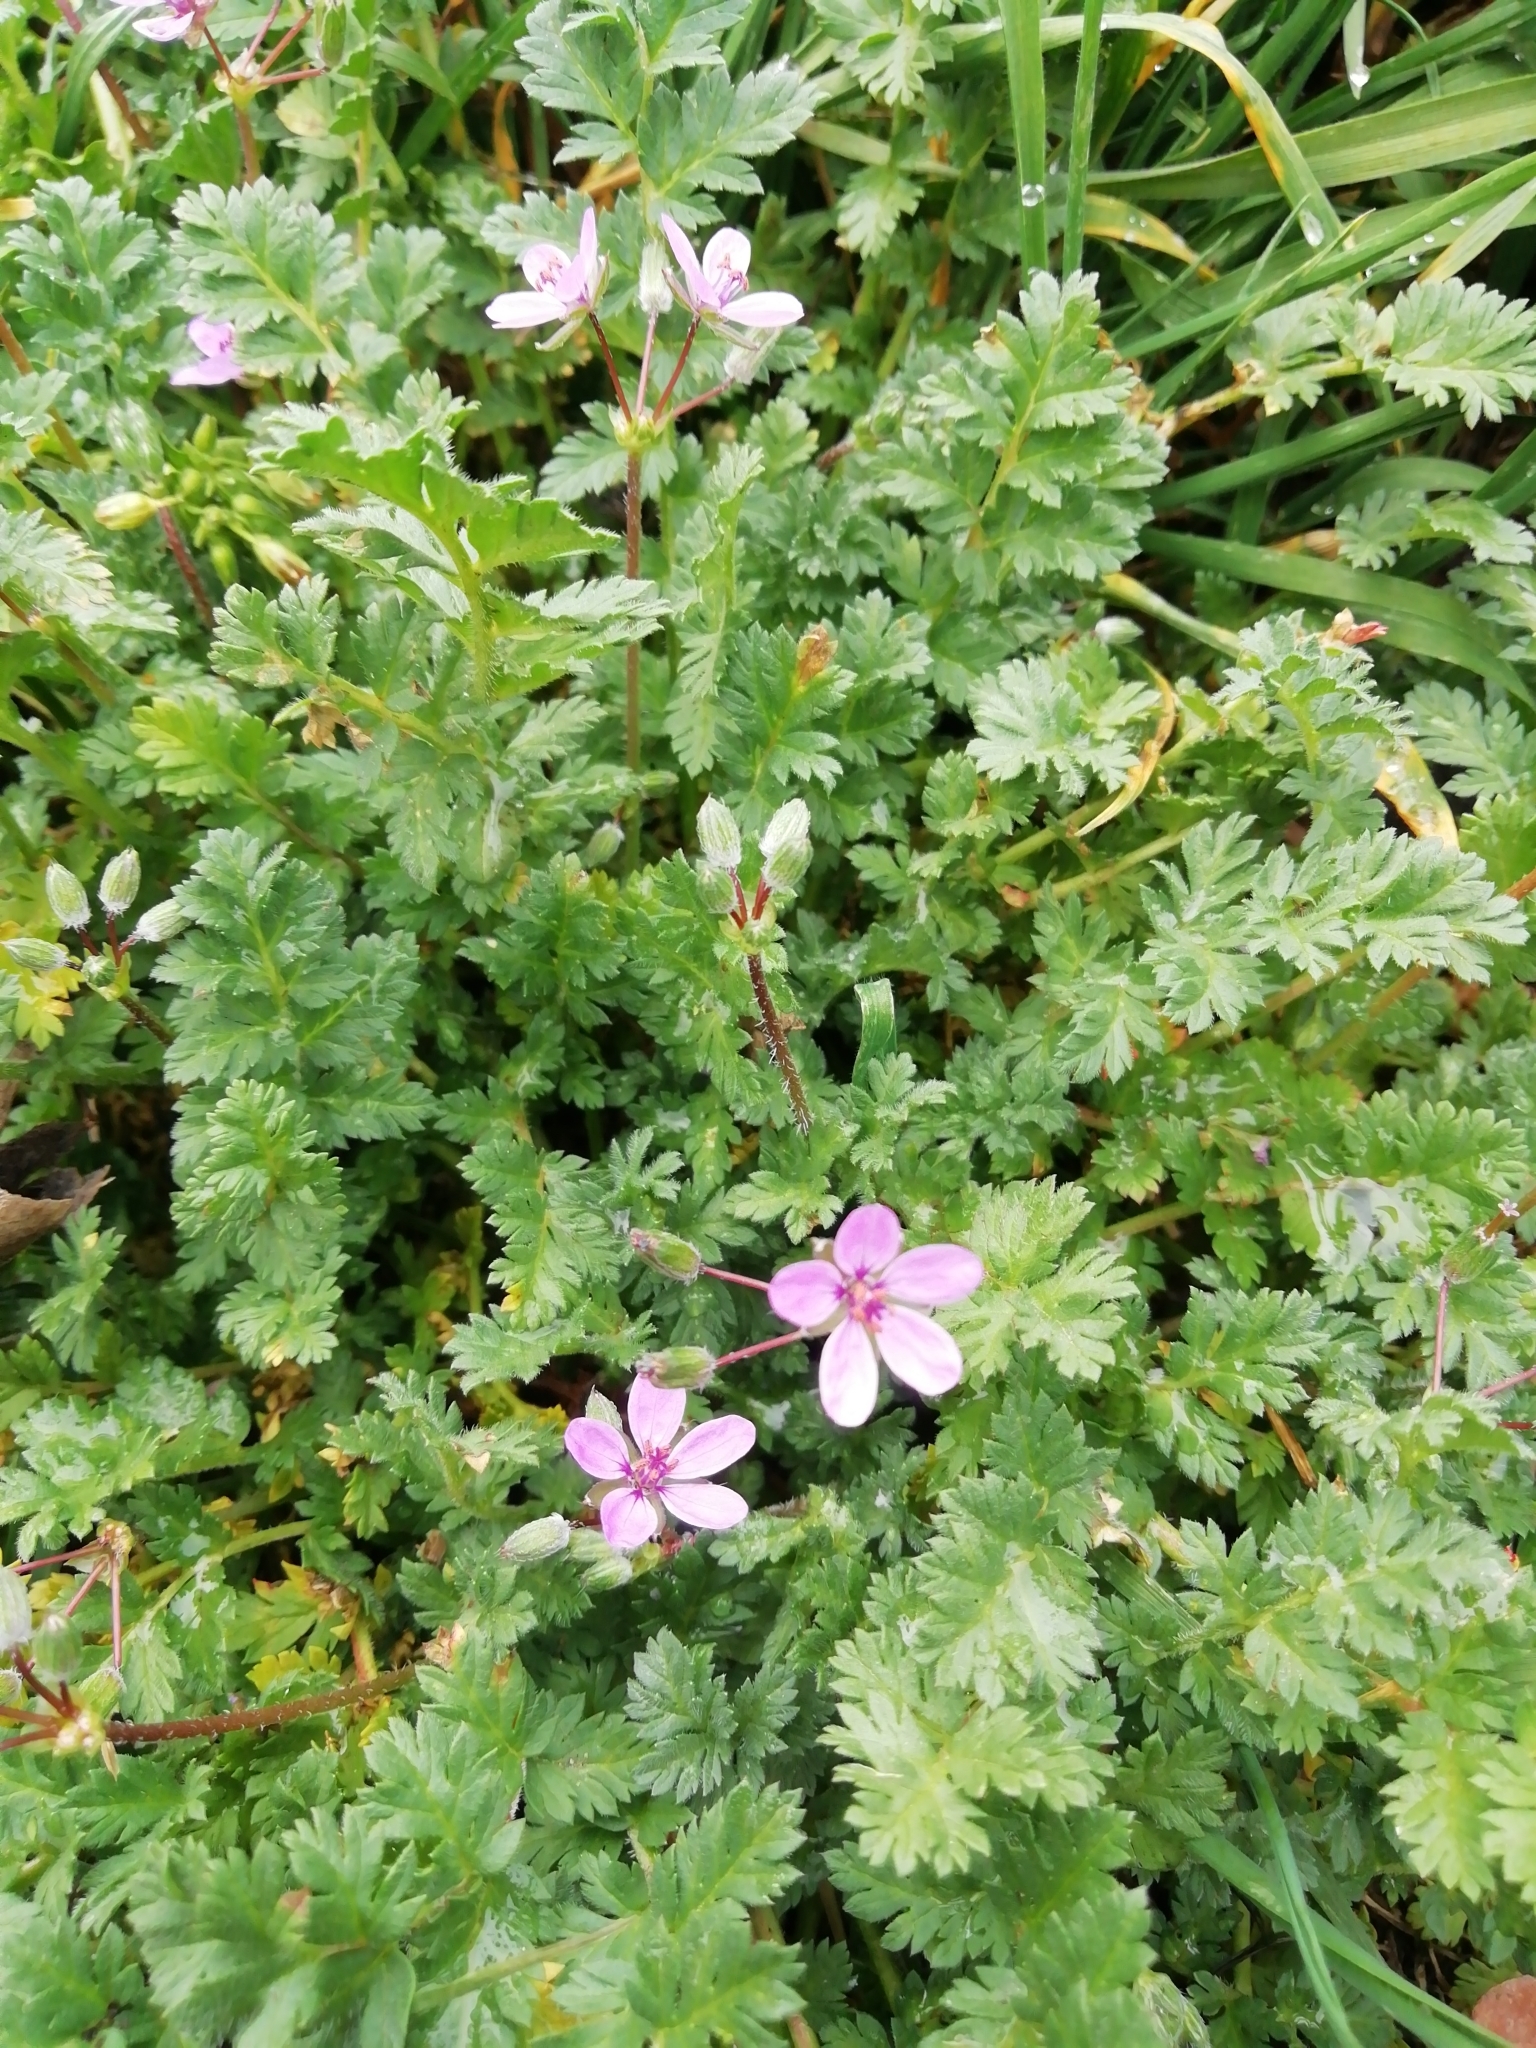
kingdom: Plantae
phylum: Tracheophyta
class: Magnoliopsida
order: Geraniales
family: Geraniaceae
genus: Erodium
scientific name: Erodium cicutarium
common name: Common stork's-bill
